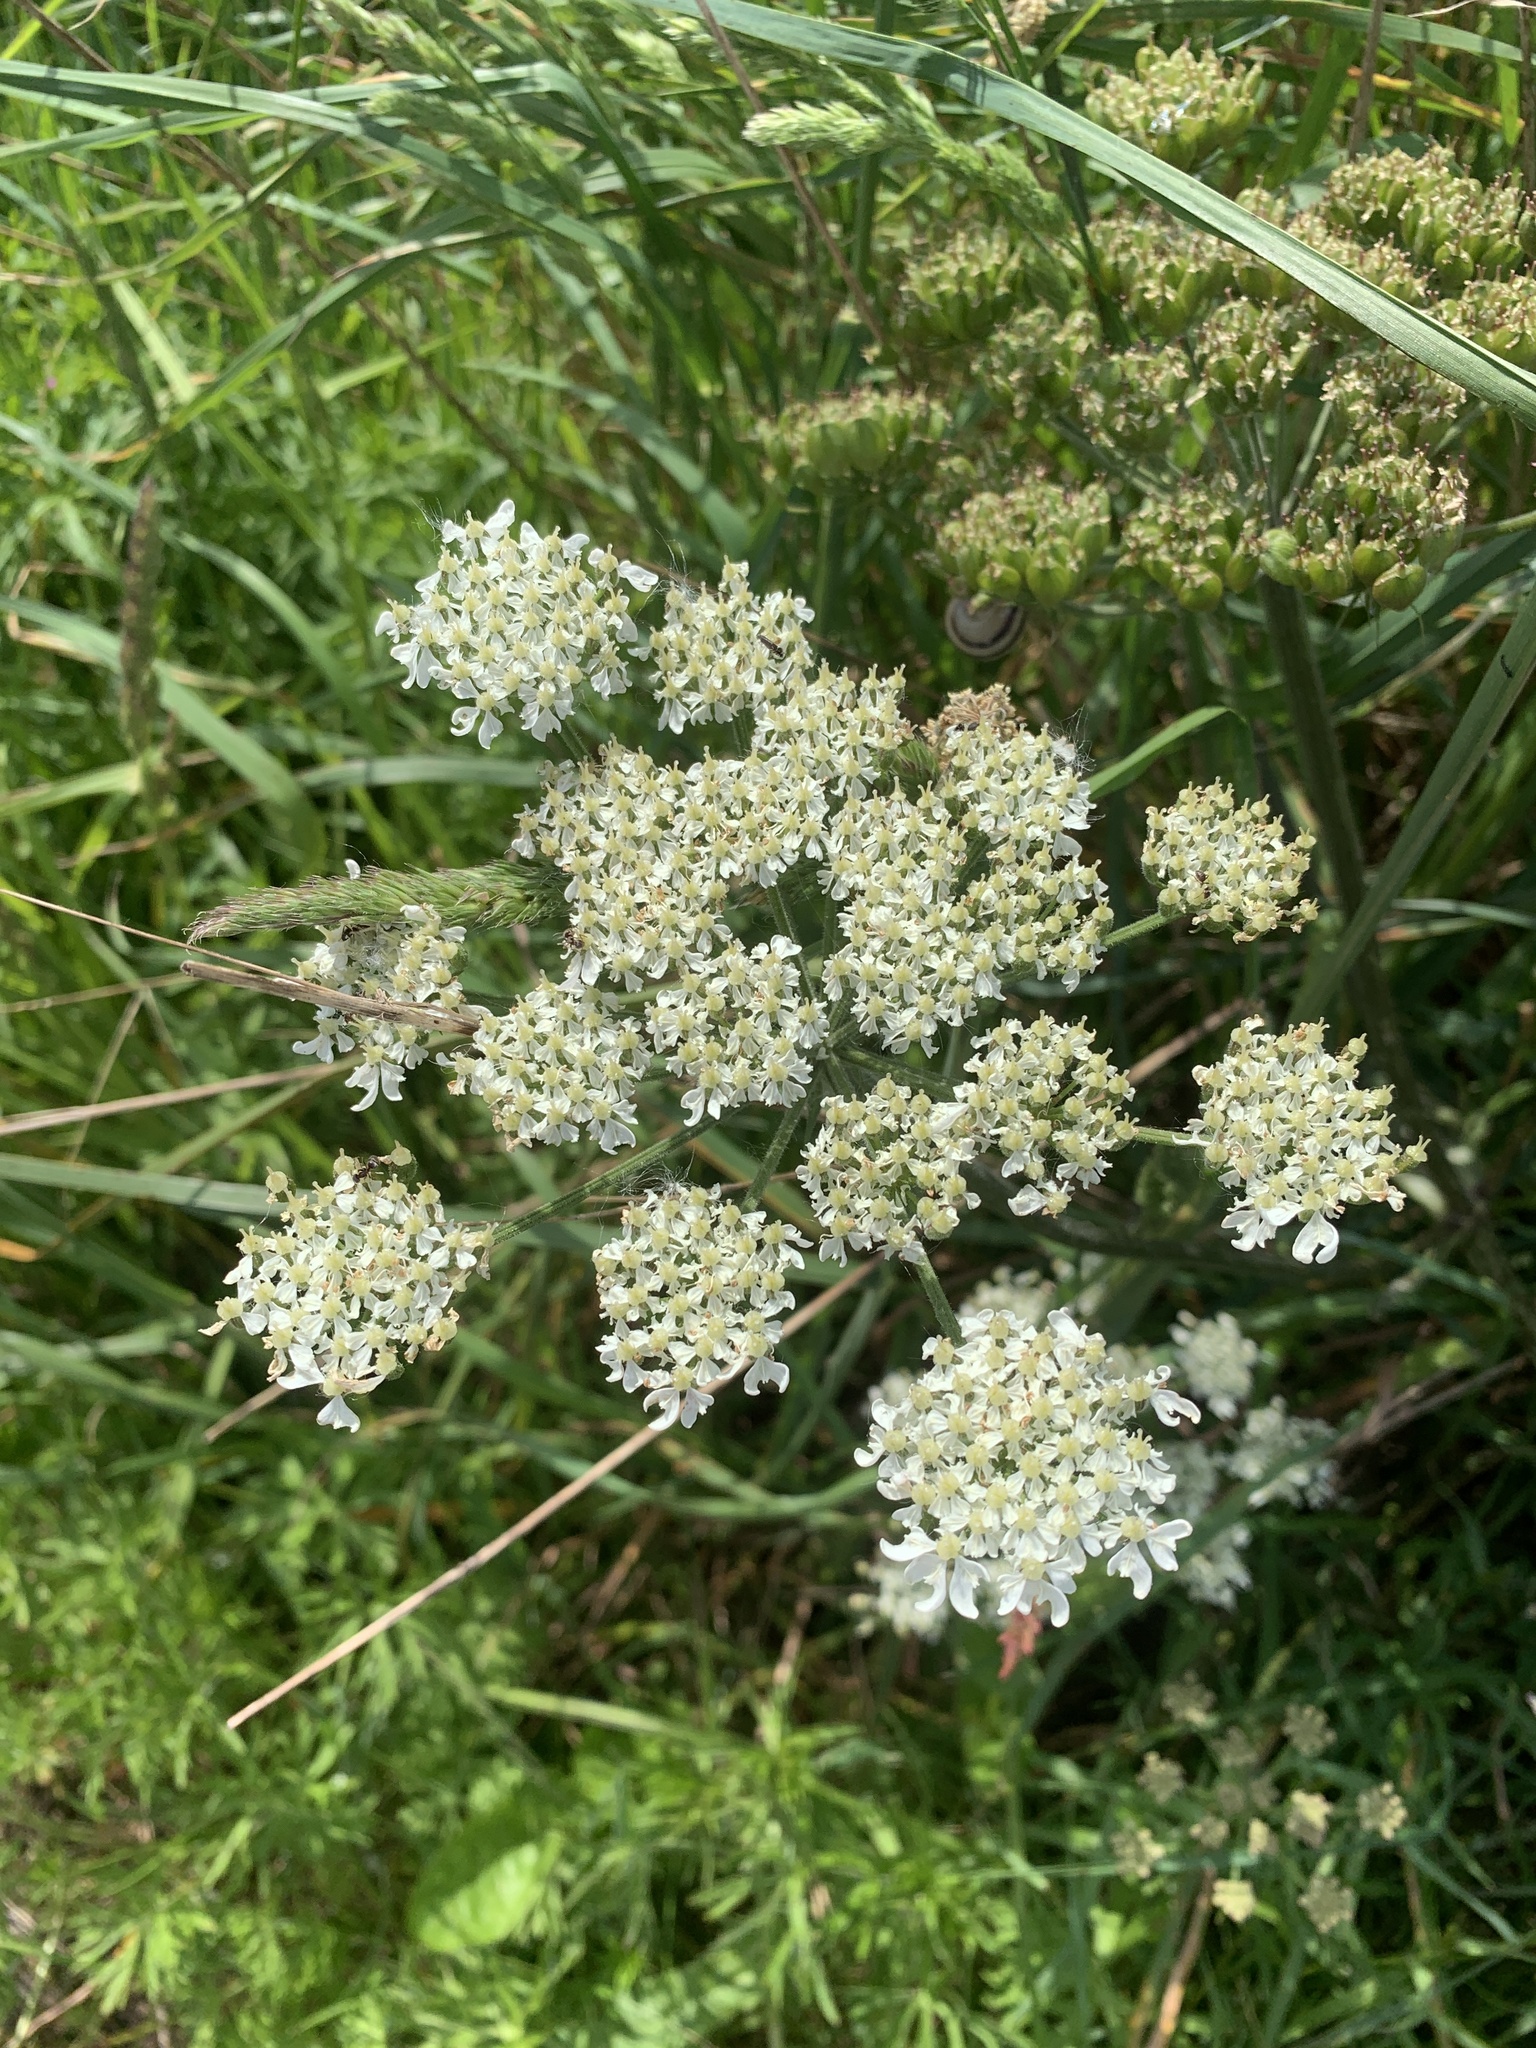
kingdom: Plantae
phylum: Tracheophyta
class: Magnoliopsida
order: Apiales
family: Apiaceae
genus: Heracleum
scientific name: Heracleum sphondylium
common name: Hogweed
